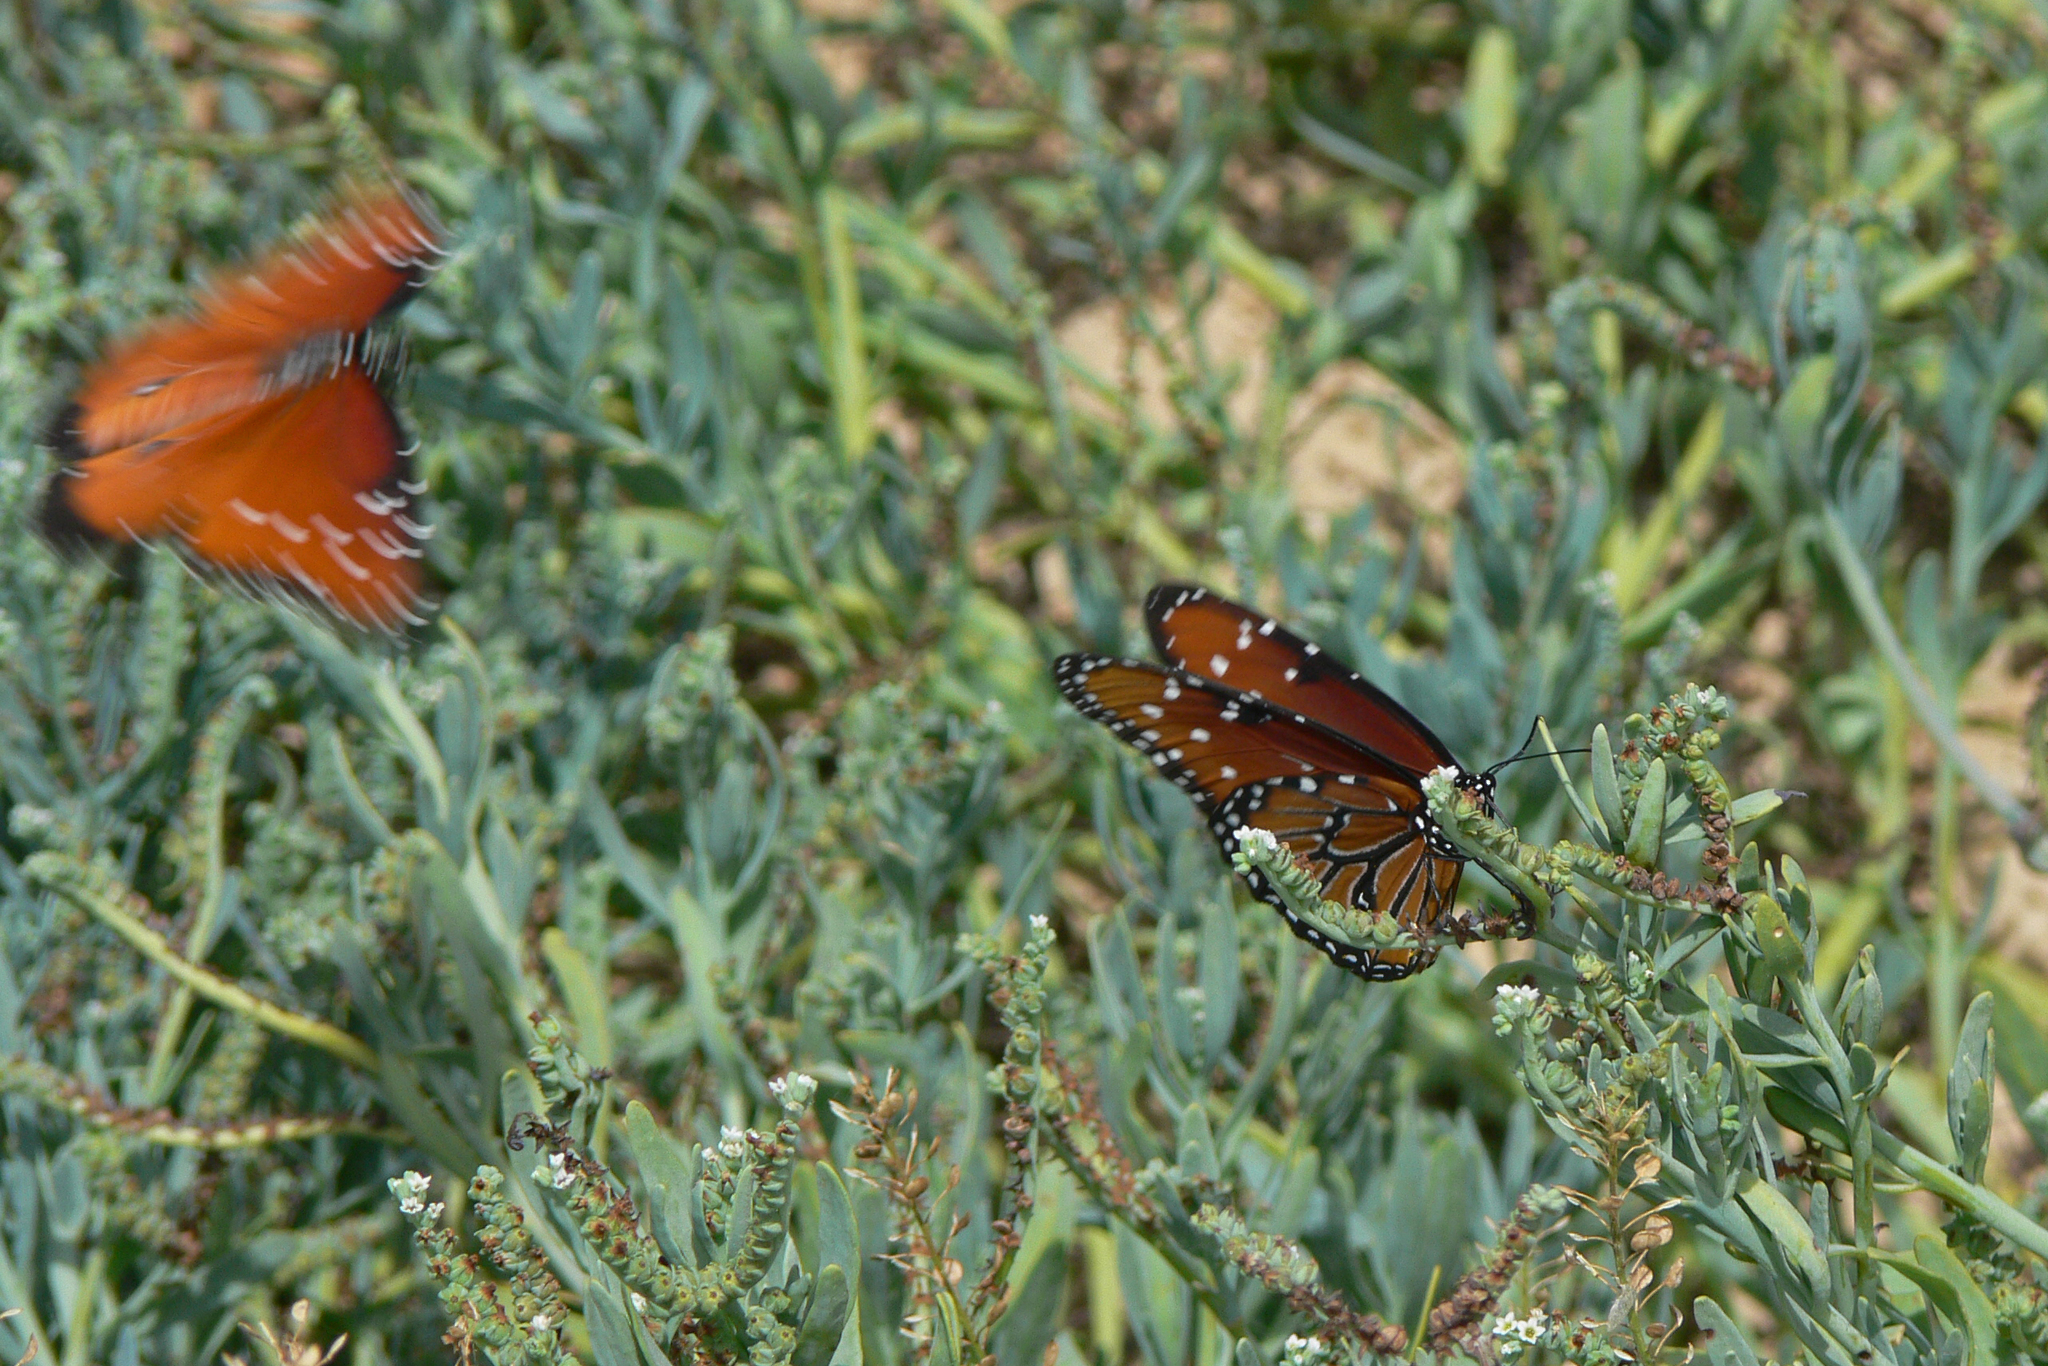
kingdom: Animalia
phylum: Arthropoda
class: Insecta
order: Lepidoptera
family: Nymphalidae
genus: Danaus
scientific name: Danaus gilippus
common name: Queen
